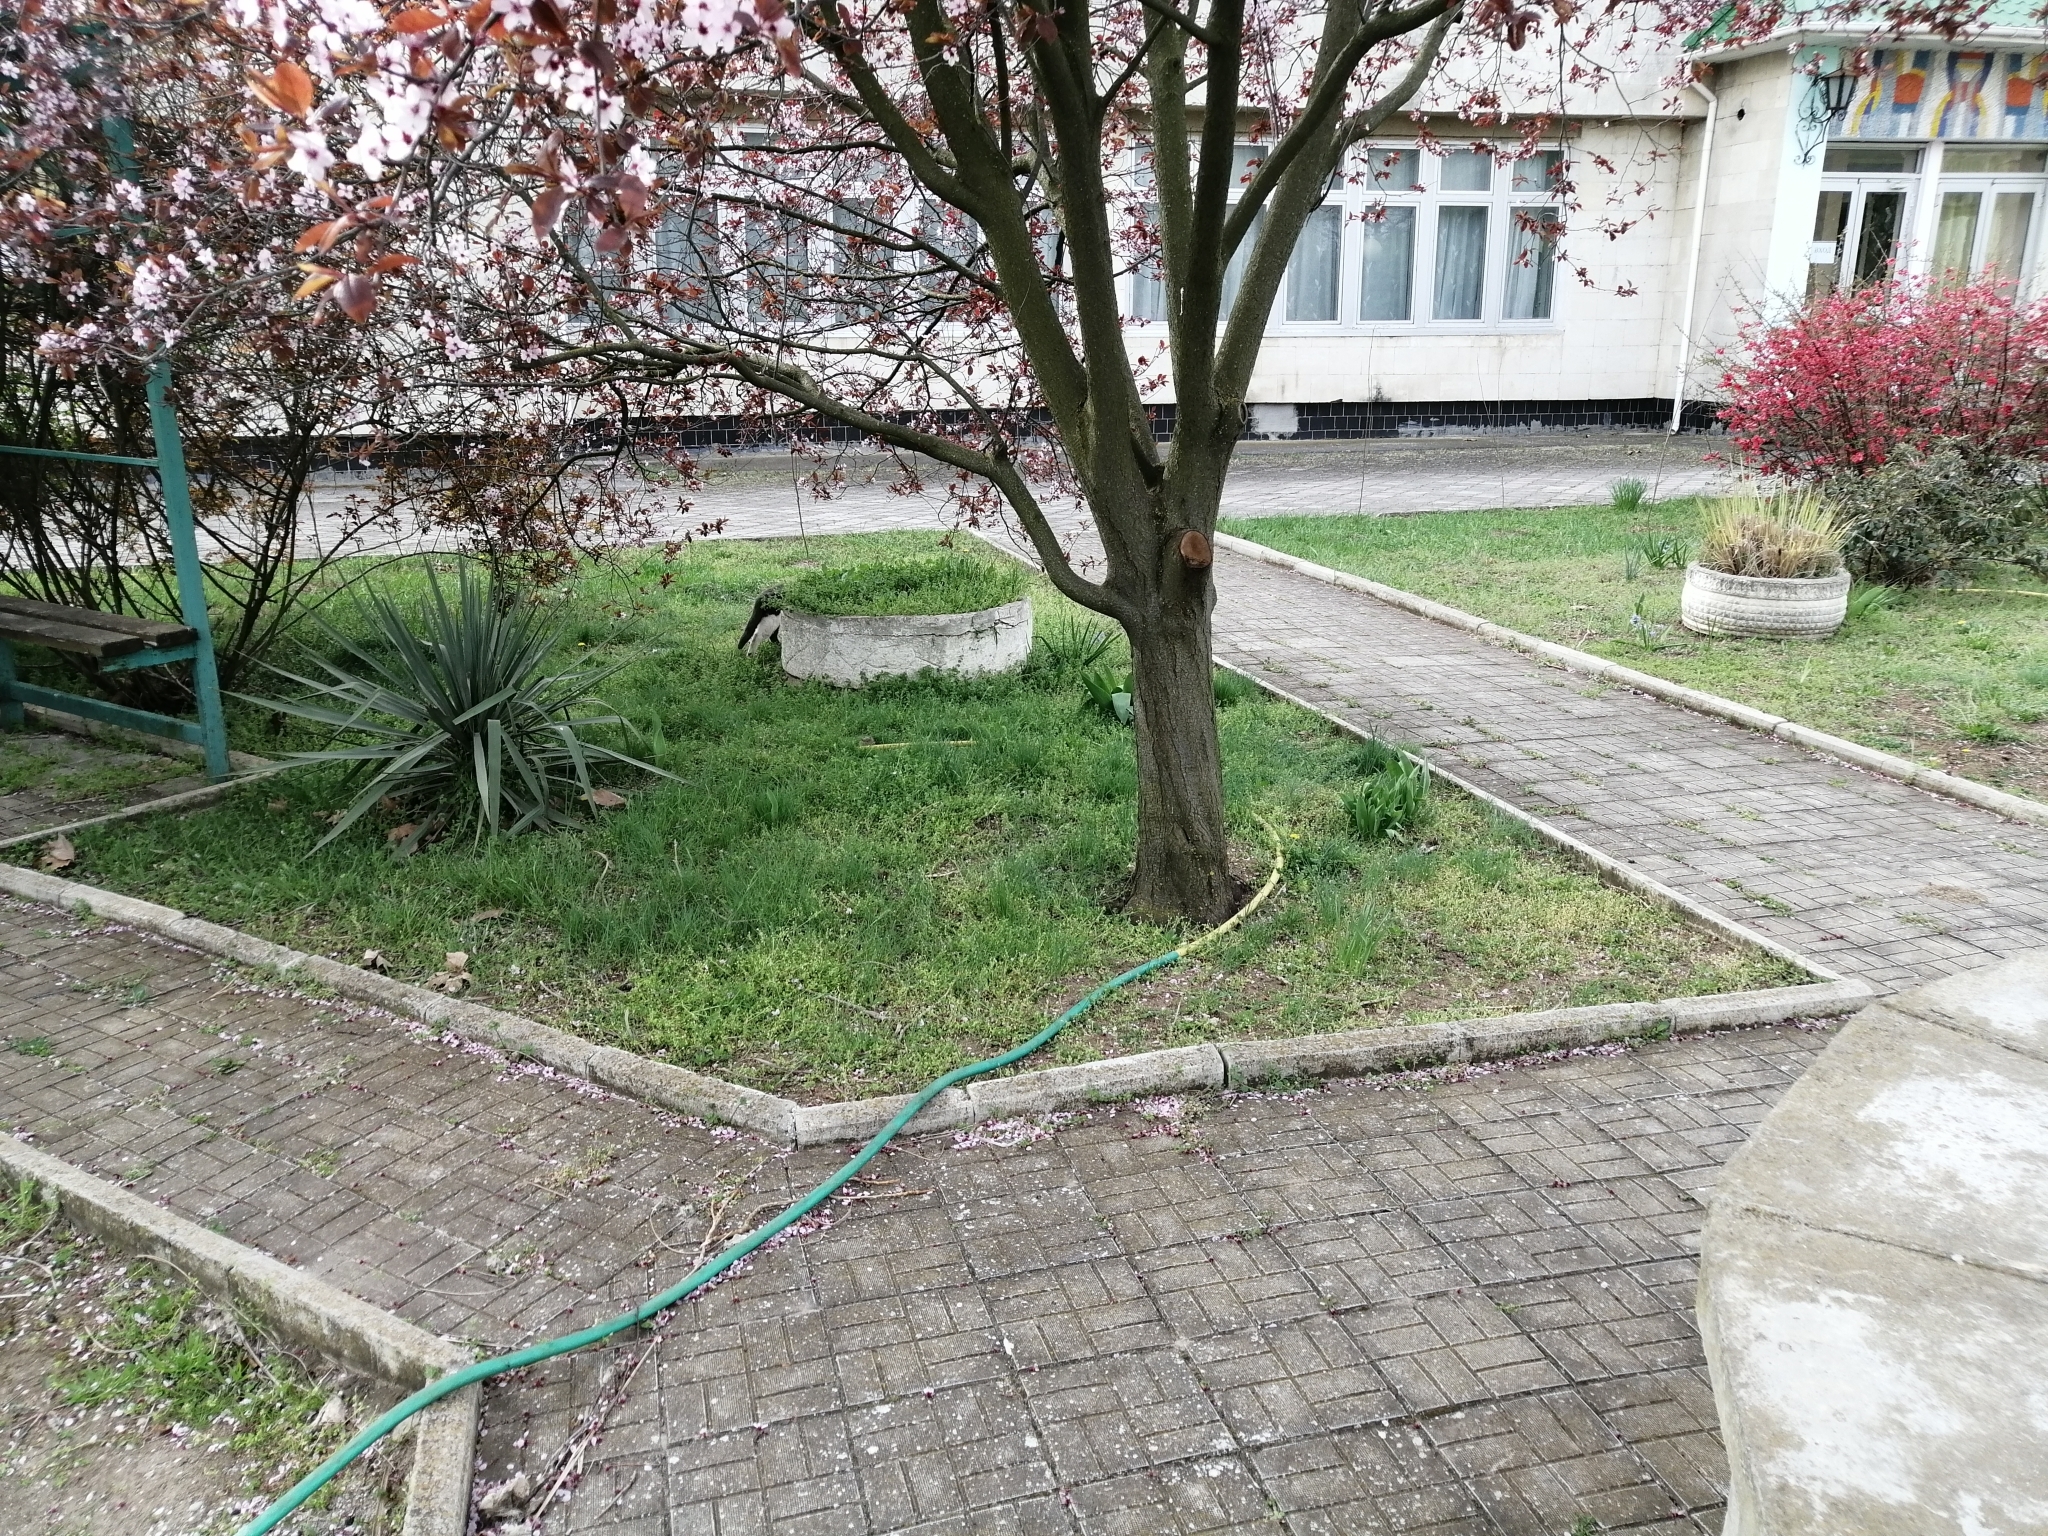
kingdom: Animalia
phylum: Chordata
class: Mammalia
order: Carnivora
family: Felidae
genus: Felis
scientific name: Felis catus
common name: Domestic cat
